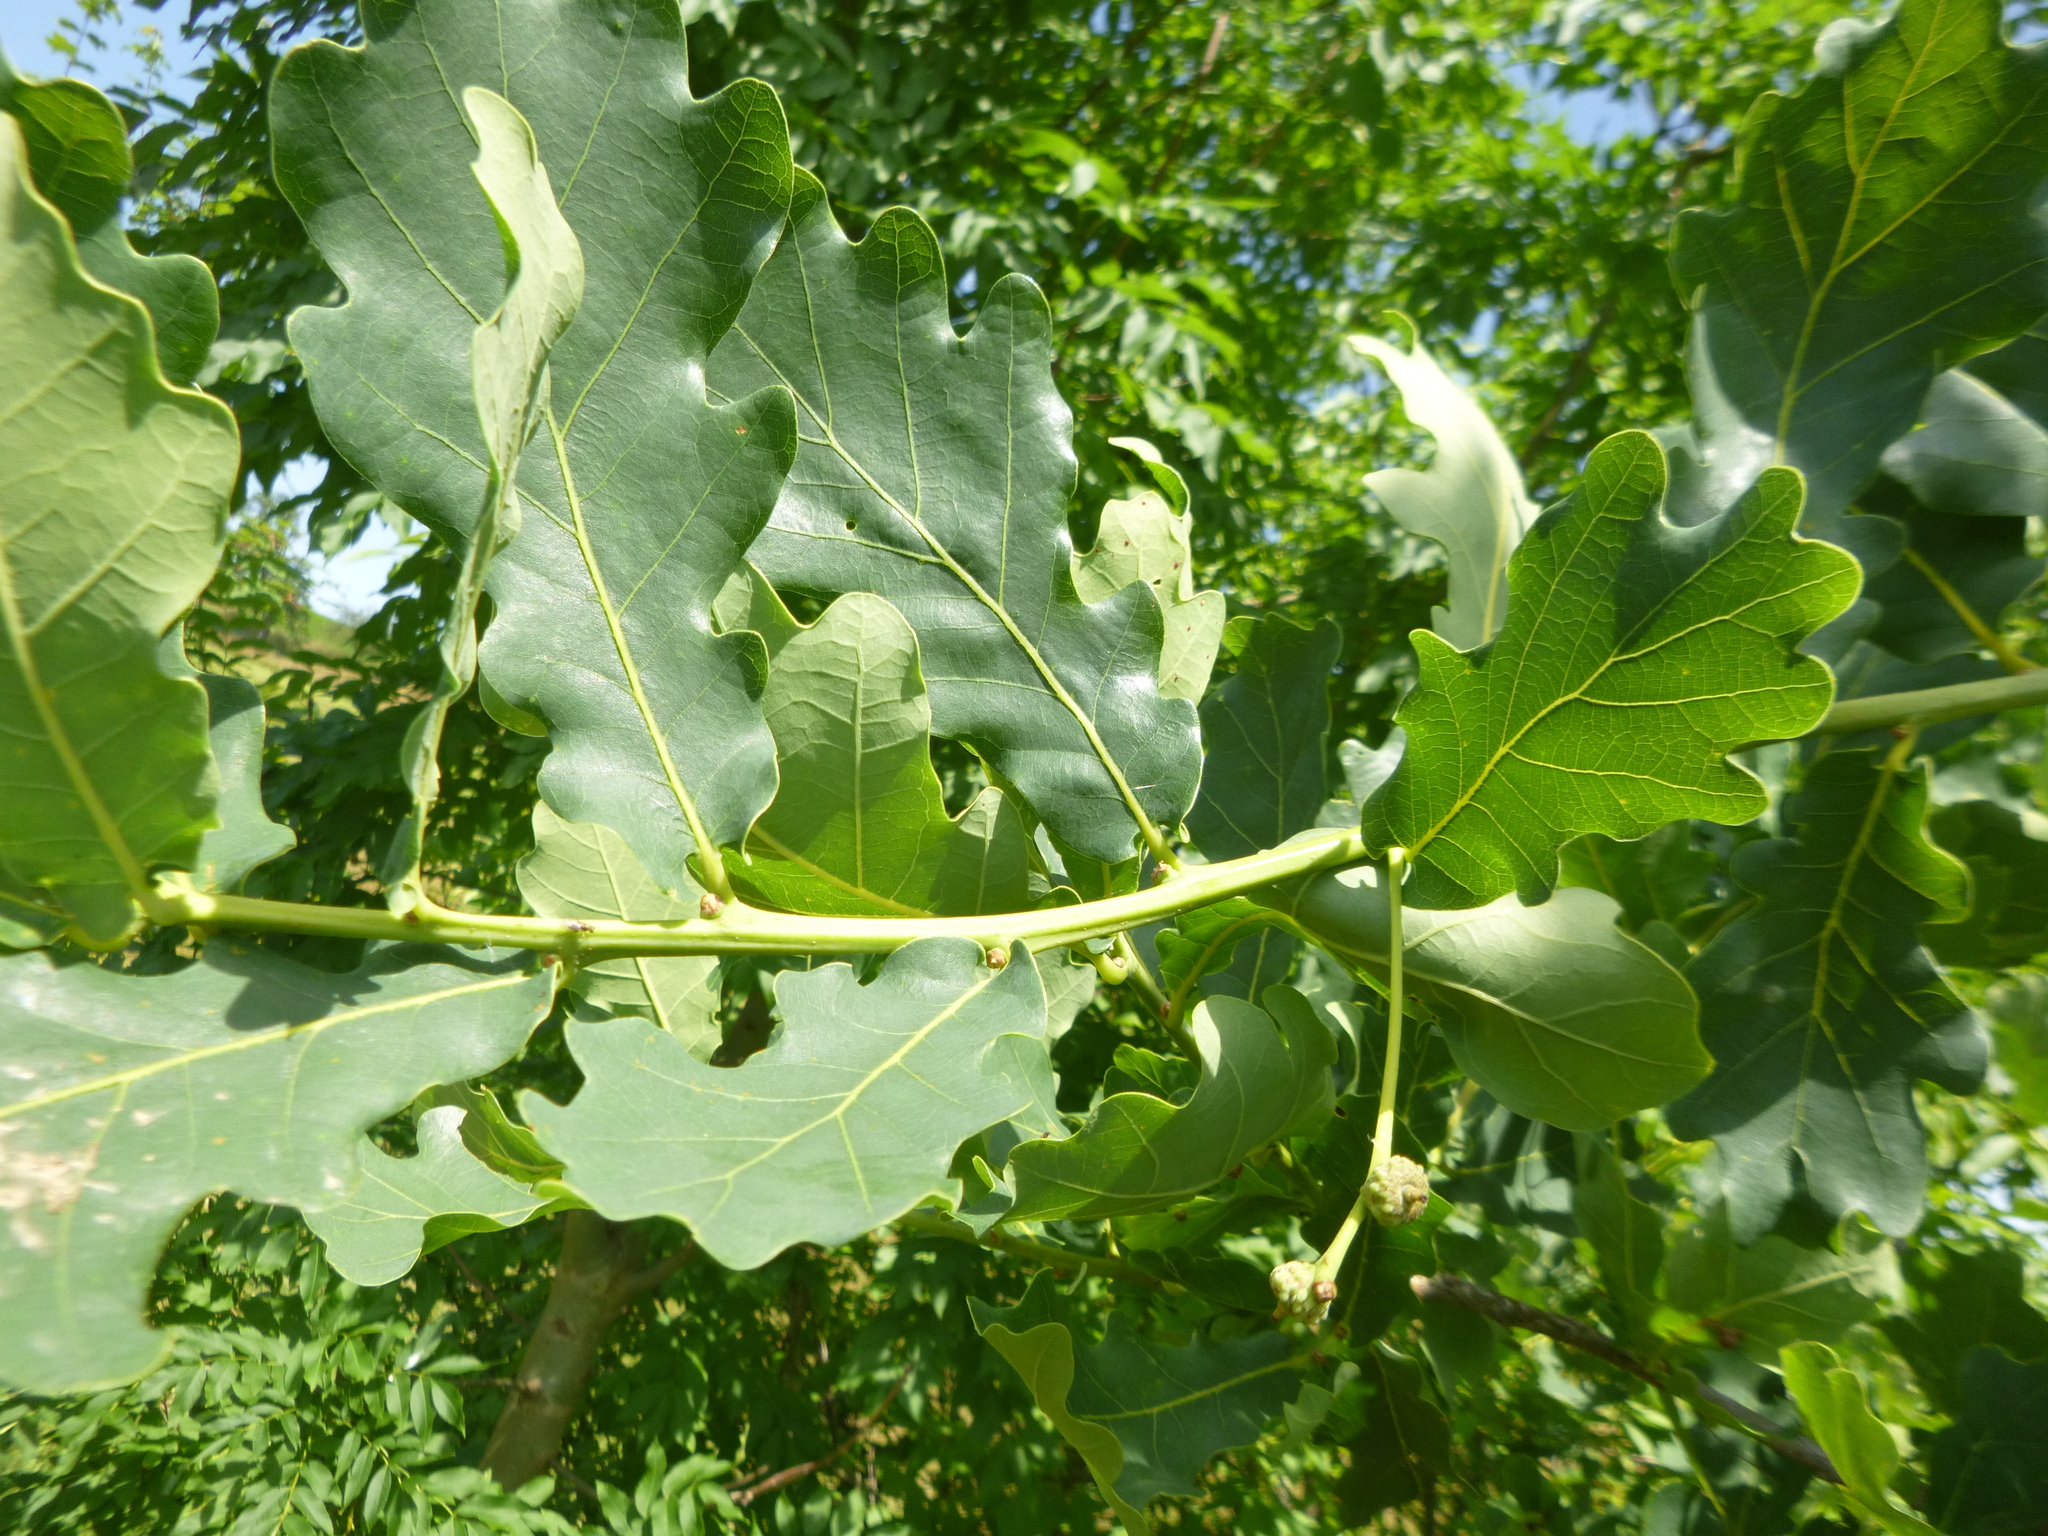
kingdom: Plantae
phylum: Tracheophyta
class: Magnoliopsida
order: Fagales
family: Fagaceae
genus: Quercus
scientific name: Quercus robur
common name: Pedunculate oak
